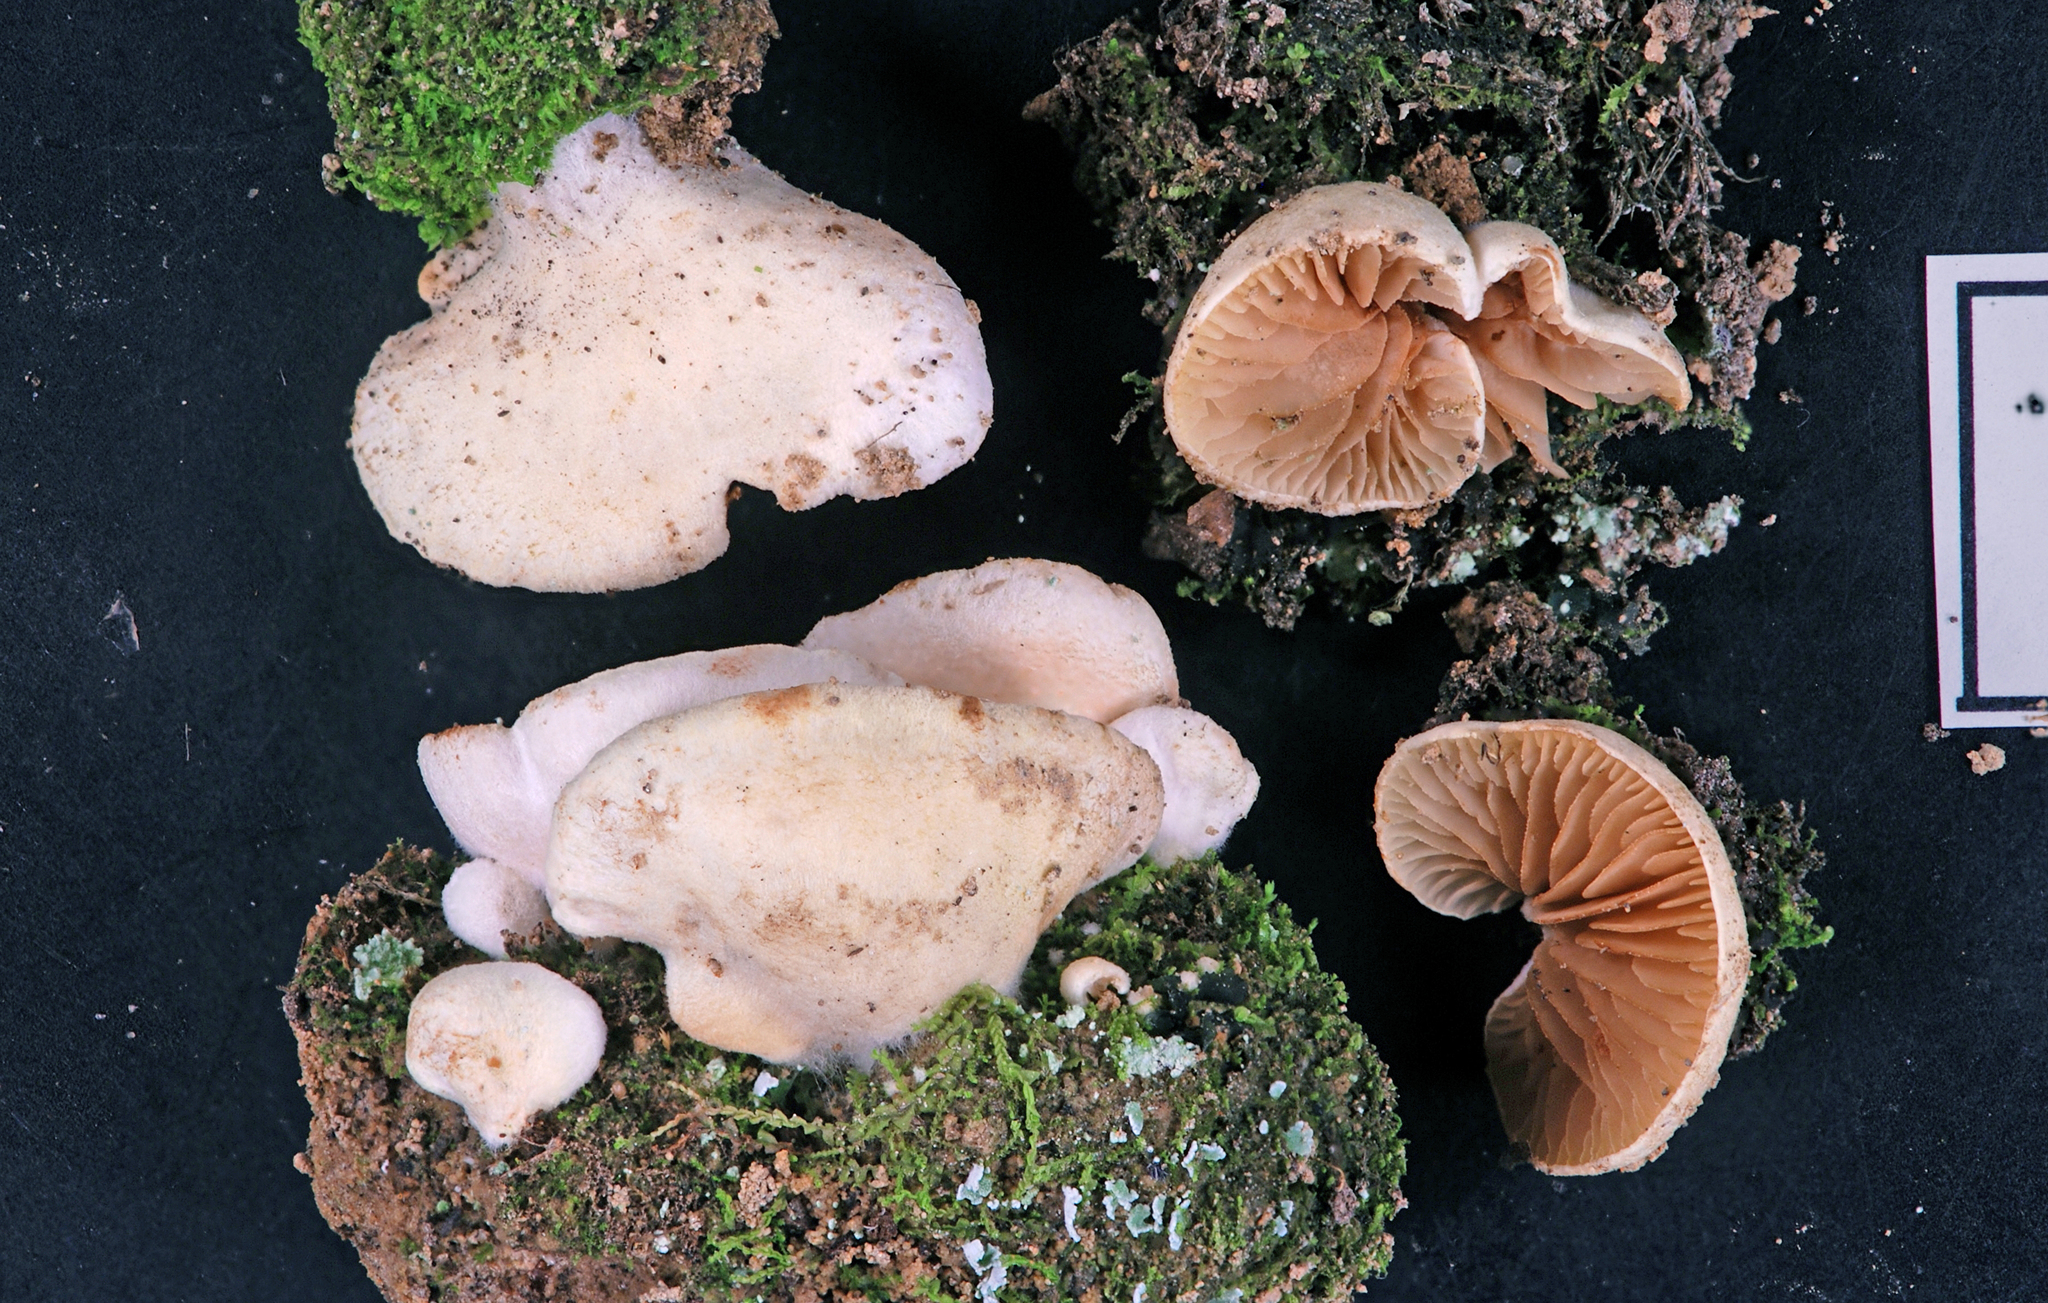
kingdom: Fungi
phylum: Basidiomycota
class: Agaricomycetes
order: Agaricales
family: Crepidotaceae
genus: Crepidotus
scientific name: Crepidotus gilvidus
